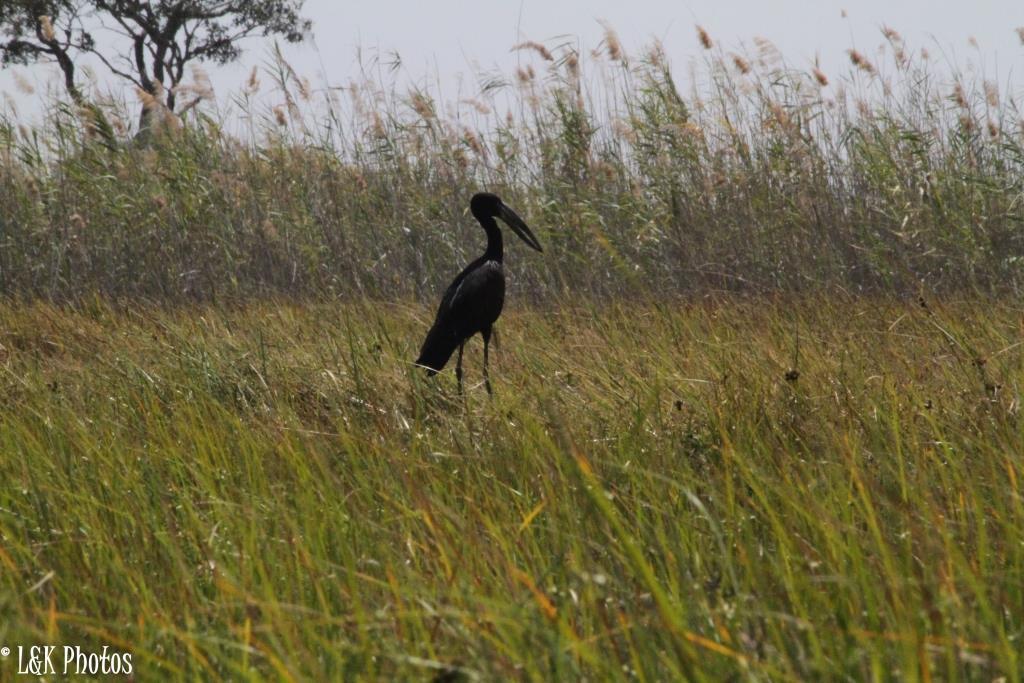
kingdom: Animalia
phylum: Chordata
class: Aves
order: Ciconiiformes
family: Ciconiidae
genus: Anastomus
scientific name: Anastomus lamelligerus
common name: African openbill
